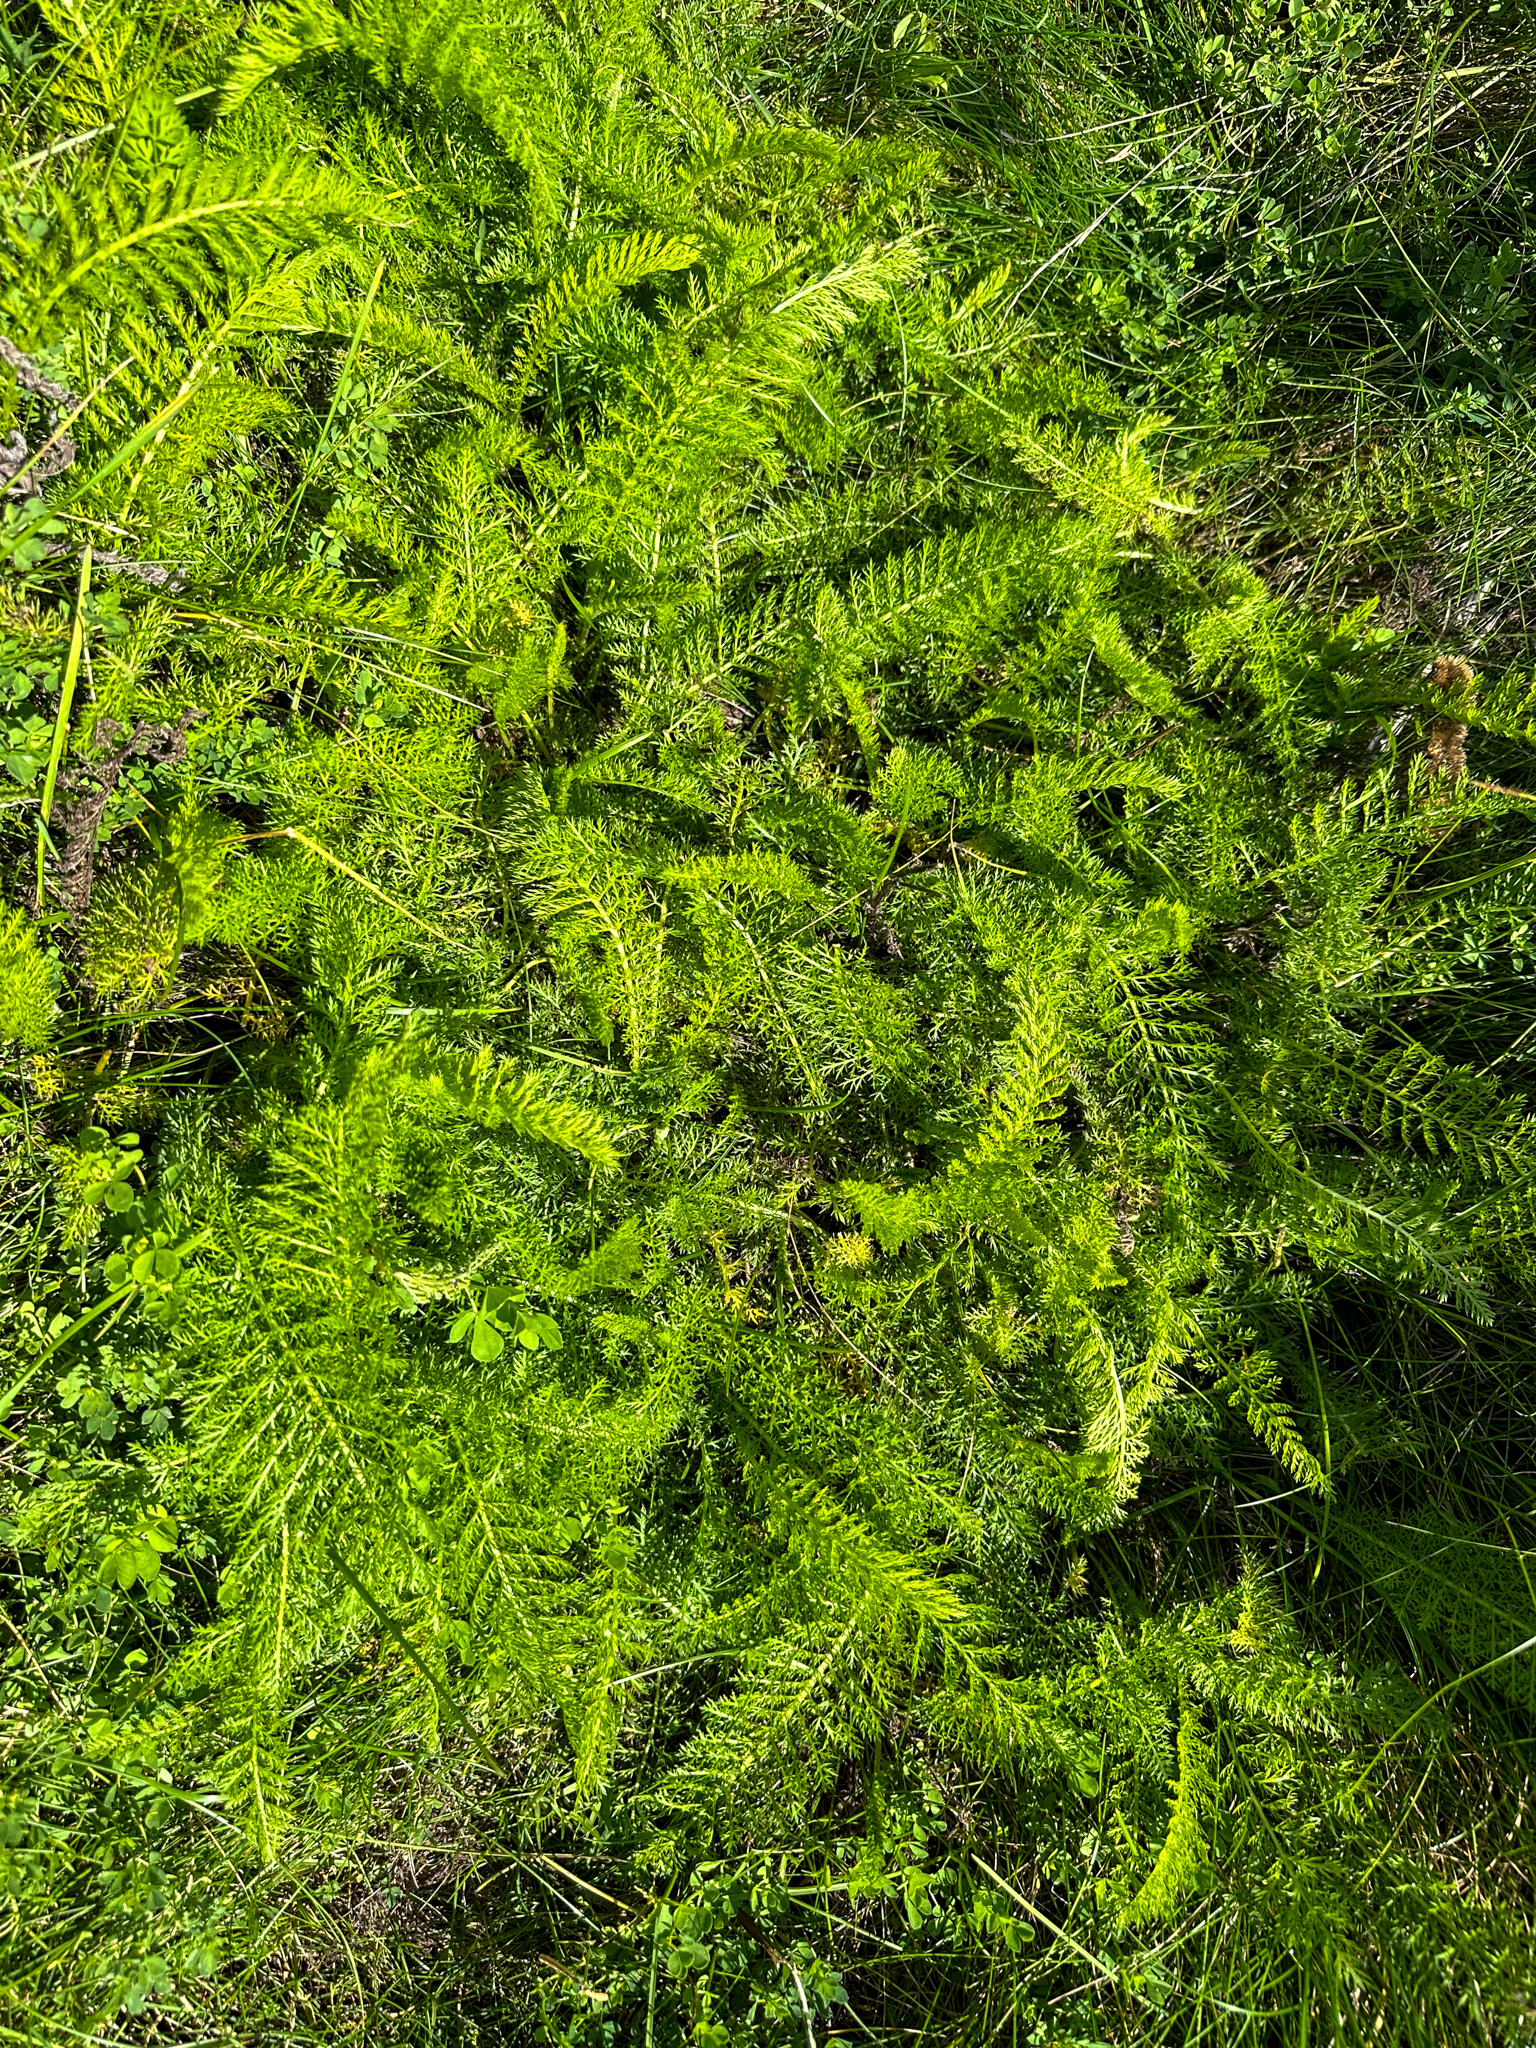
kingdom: Plantae
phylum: Tracheophyta
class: Magnoliopsida
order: Asterales
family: Asteraceae
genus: Achillea
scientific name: Achillea millefolium
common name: Yarrow
